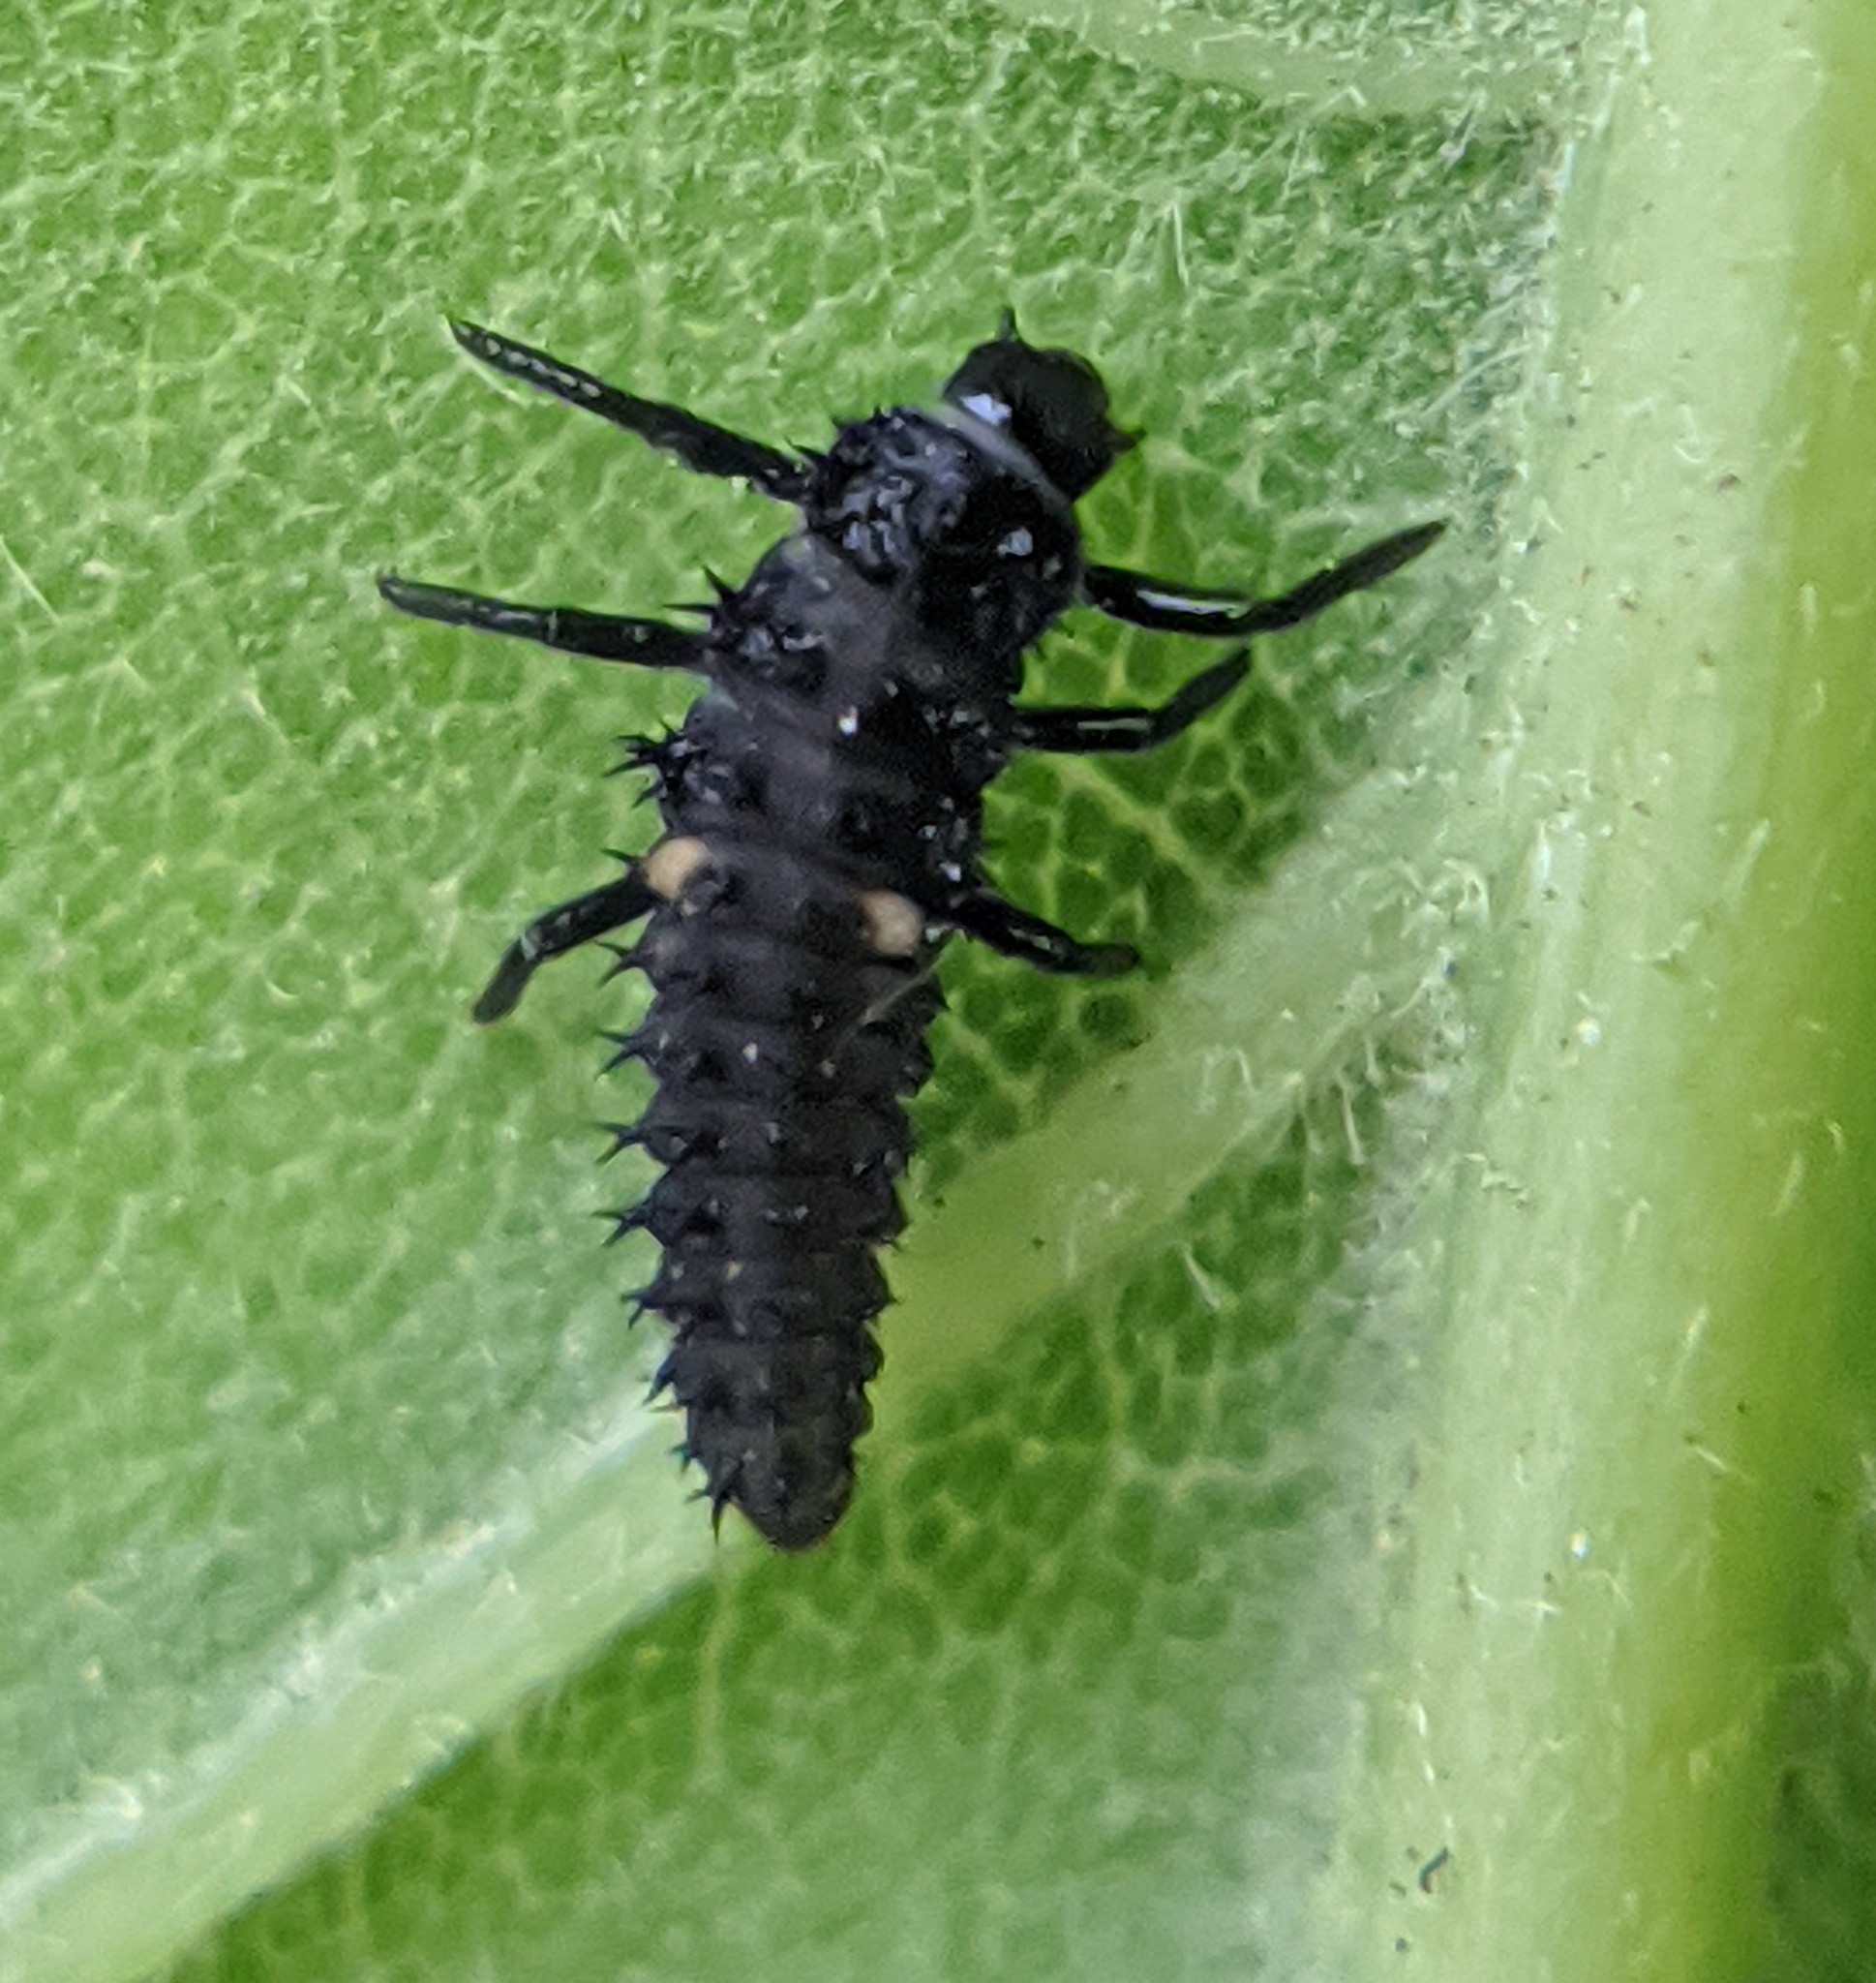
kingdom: Animalia
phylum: Arthropoda
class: Insecta
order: Coleoptera
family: Coccinellidae
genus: Harmonia
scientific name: Harmonia axyridis
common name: Harlequin ladybird
